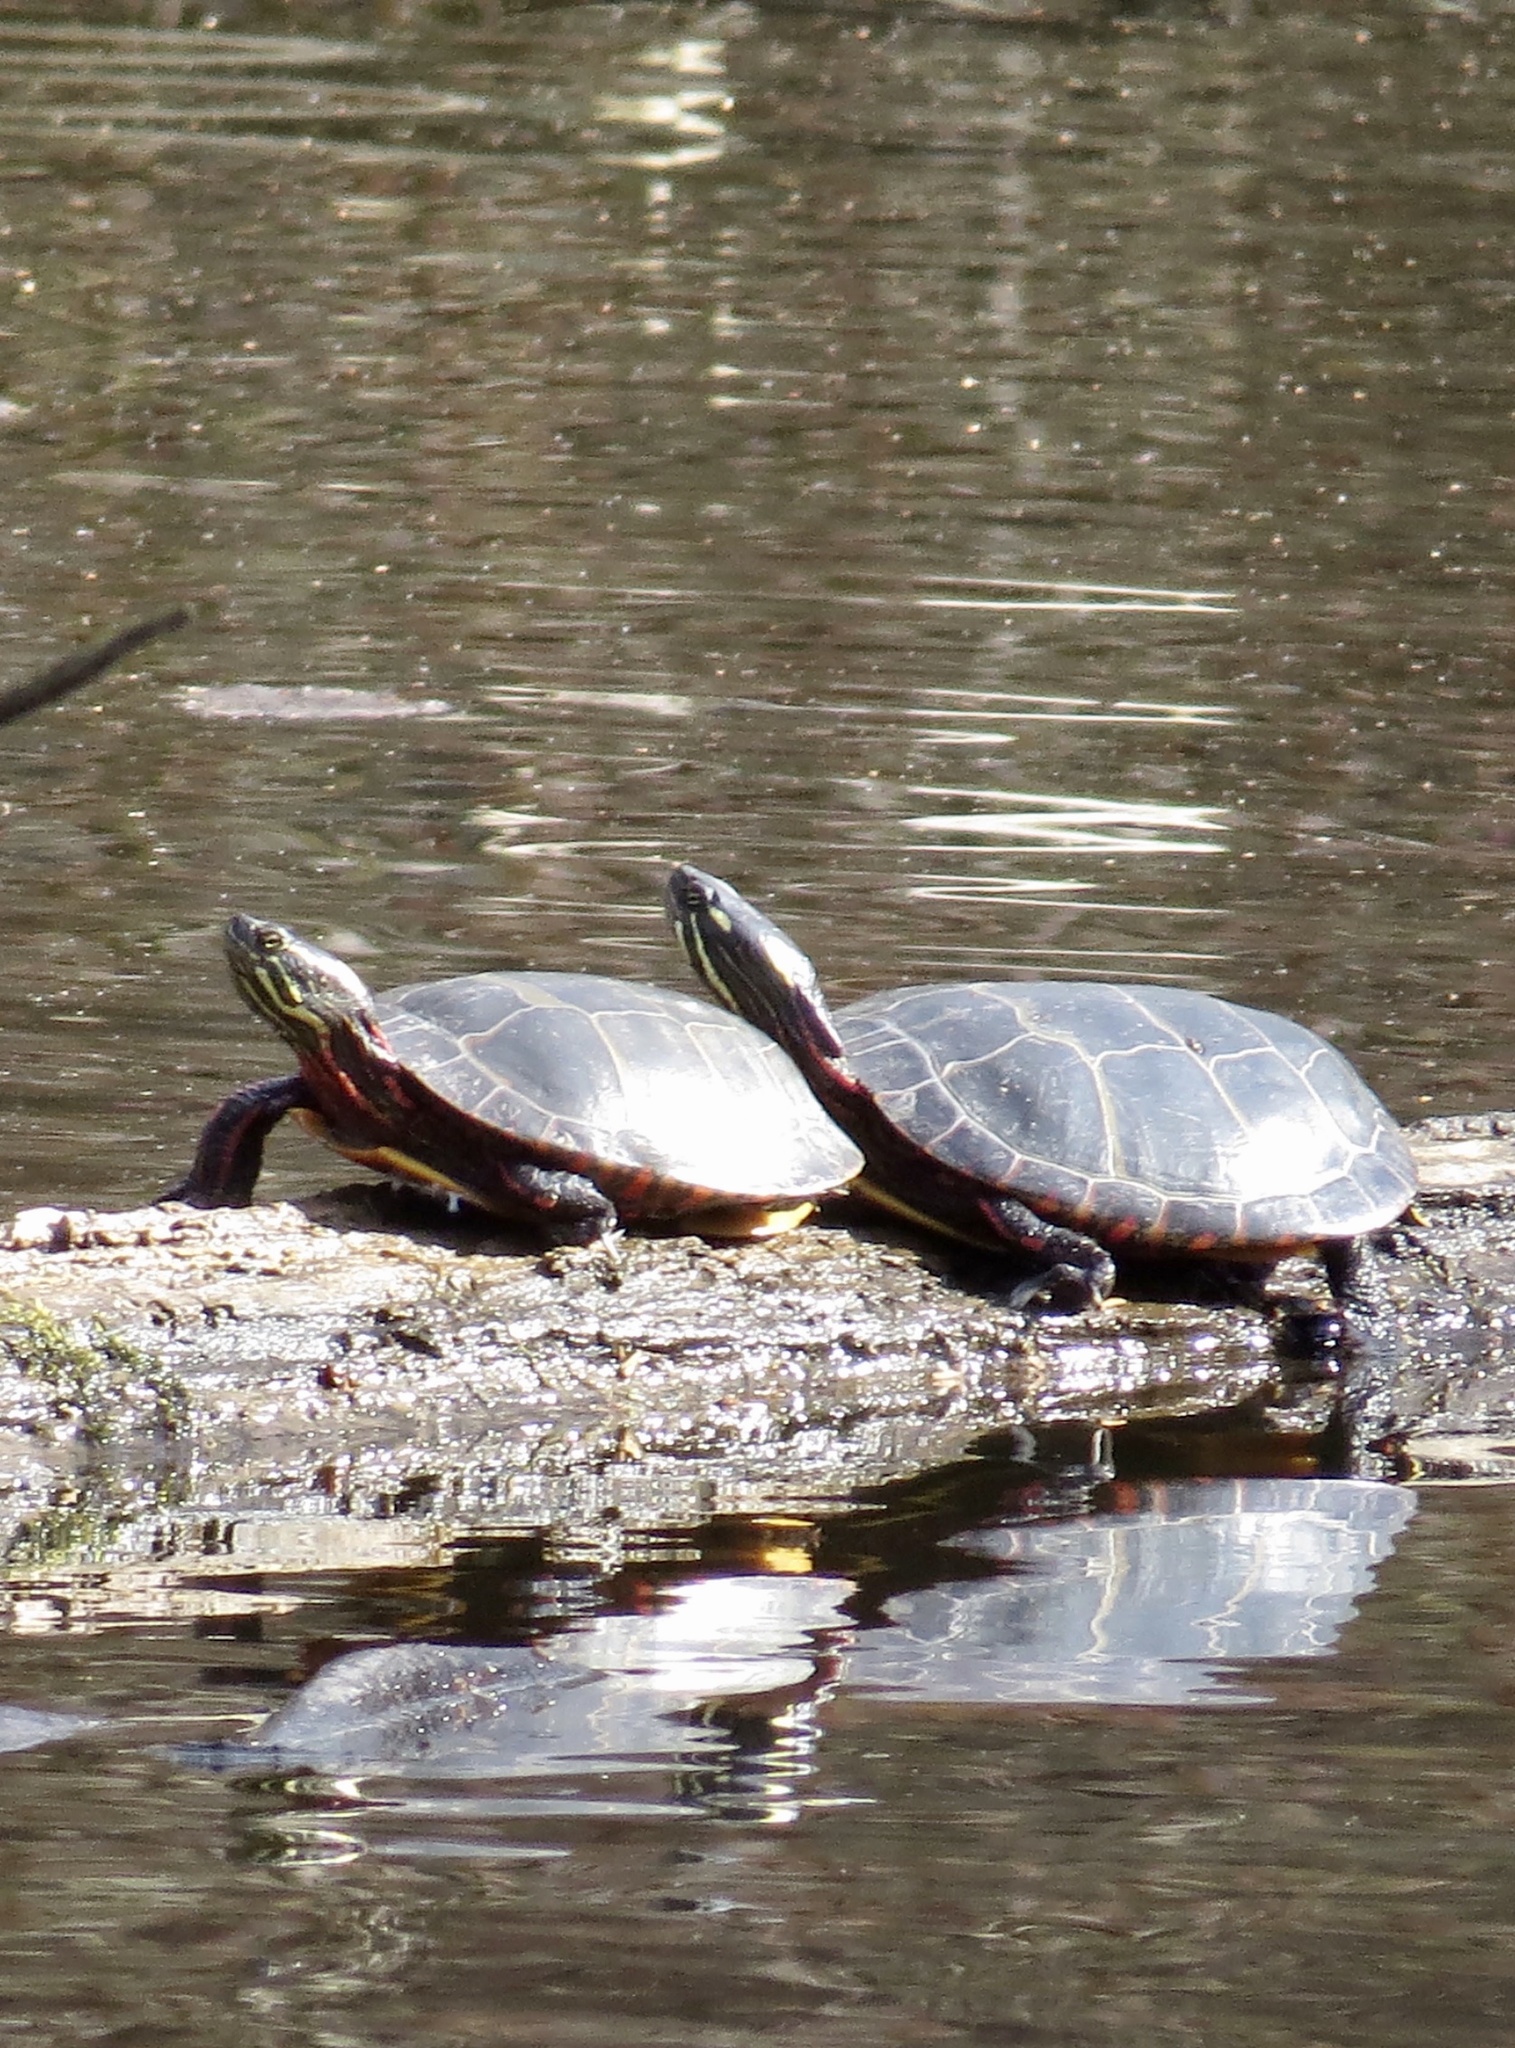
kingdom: Animalia
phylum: Chordata
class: Testudines
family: Emydidae
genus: Chrysemys
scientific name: Chrysemys picta
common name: Painted turtle
